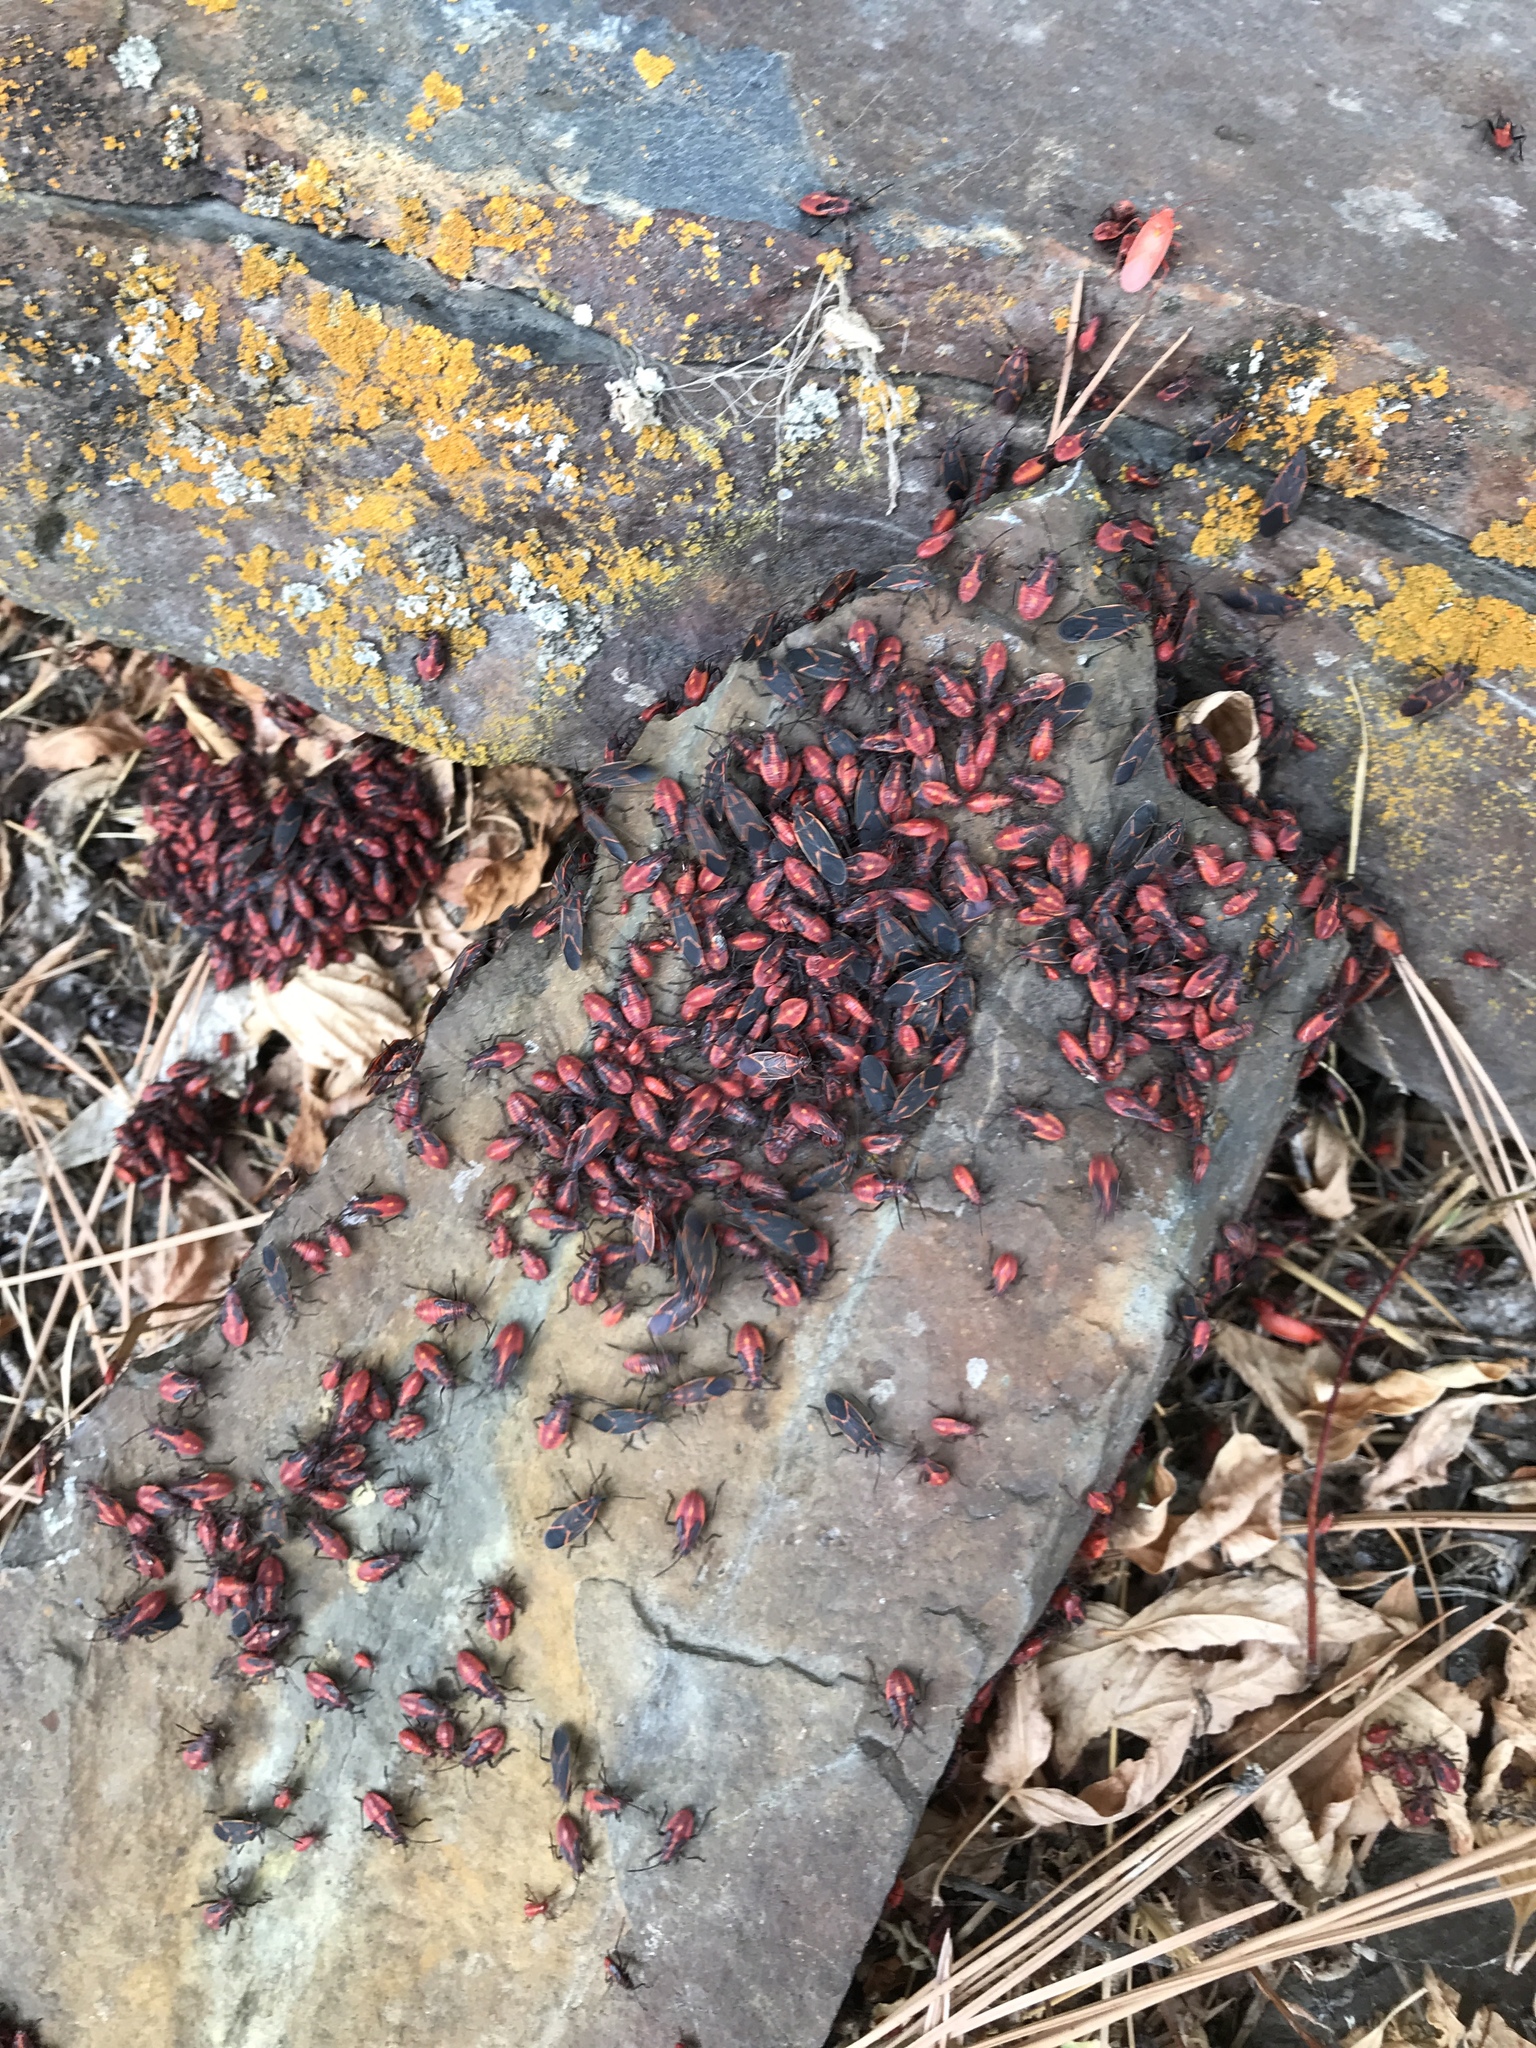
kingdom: Animalia
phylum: Arthropoda
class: Insecta
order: Hemiptera
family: Rhopalidae
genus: Boisea
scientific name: Boisea trivittata
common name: Boxelder bug
